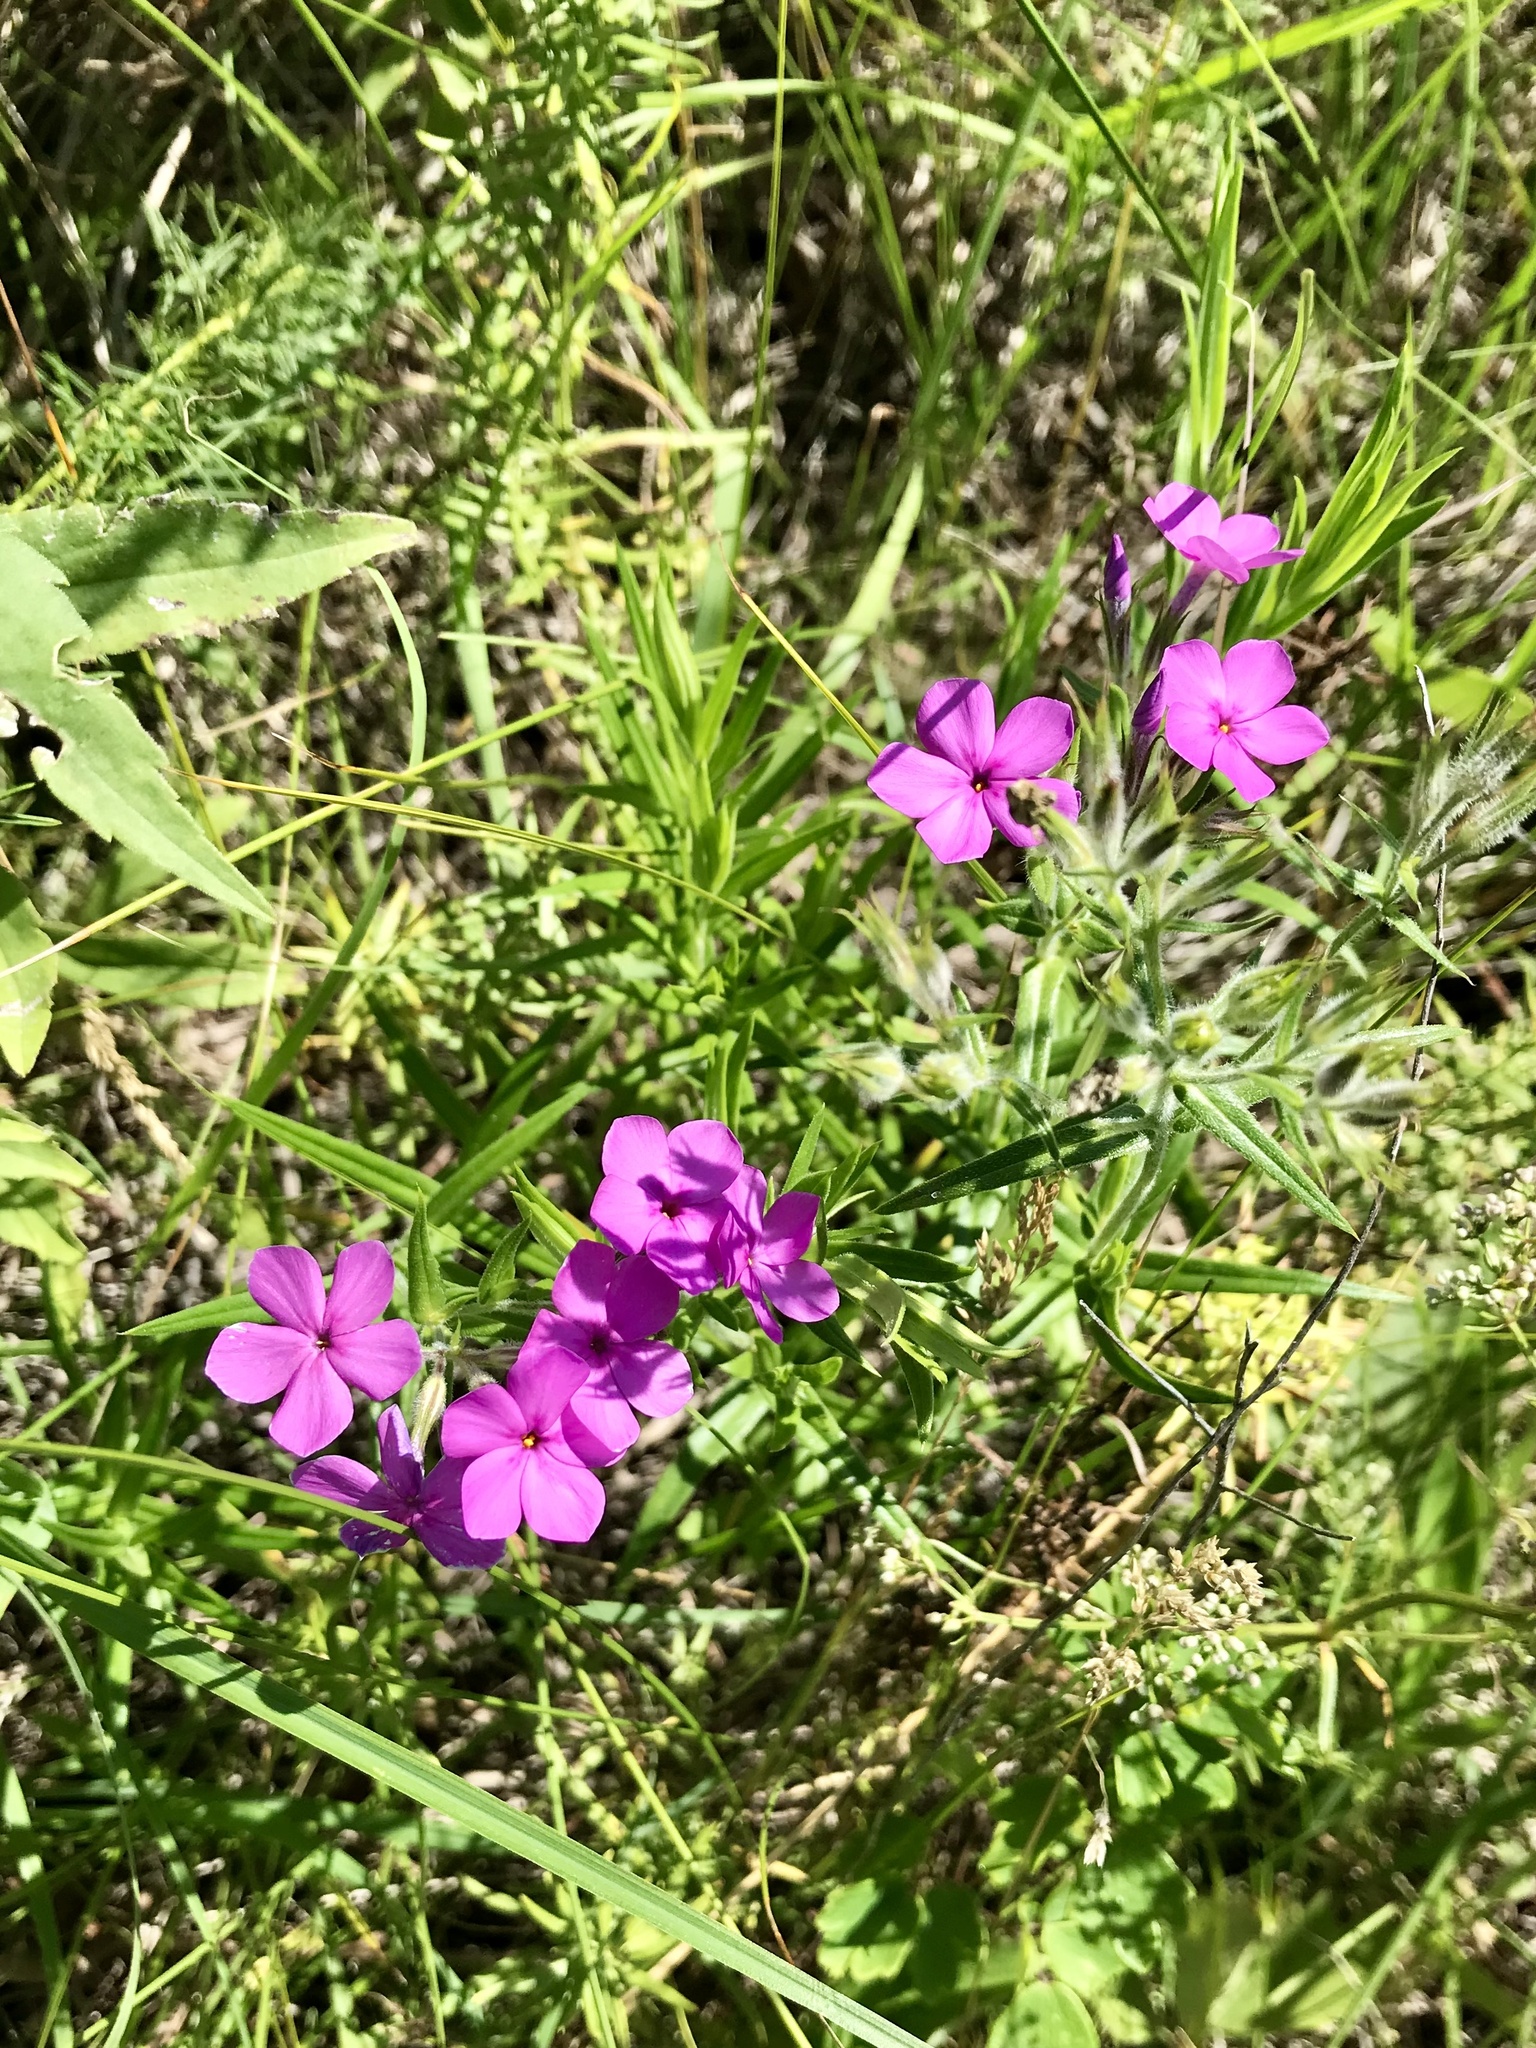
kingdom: Plantae
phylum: Tracheophyta
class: Magnoliopsida
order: Ericales
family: Polemoniaceae
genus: Phlox
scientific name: Phlox pilosa
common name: Prairie phlox
